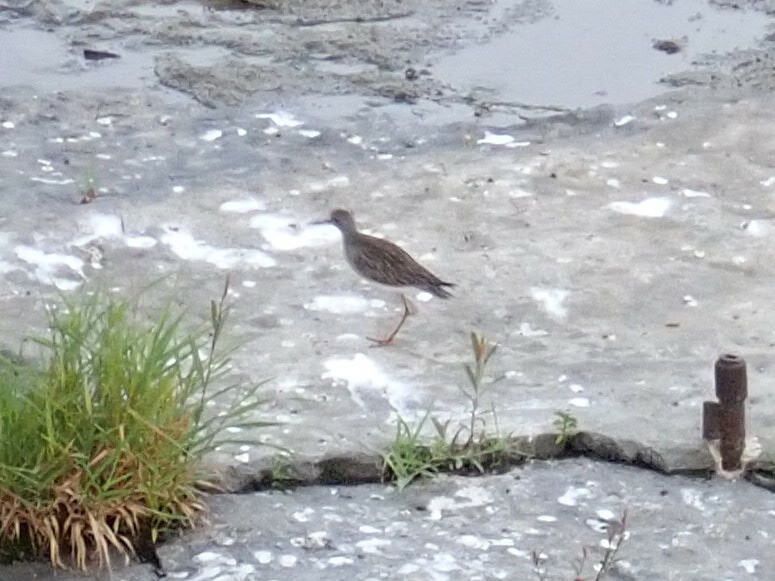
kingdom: Animalia
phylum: Chordata
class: Aves
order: Charadriiformes
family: Scolopacidae
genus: Tringa
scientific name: Tringa flavipes
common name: Lesser yellowlegs
